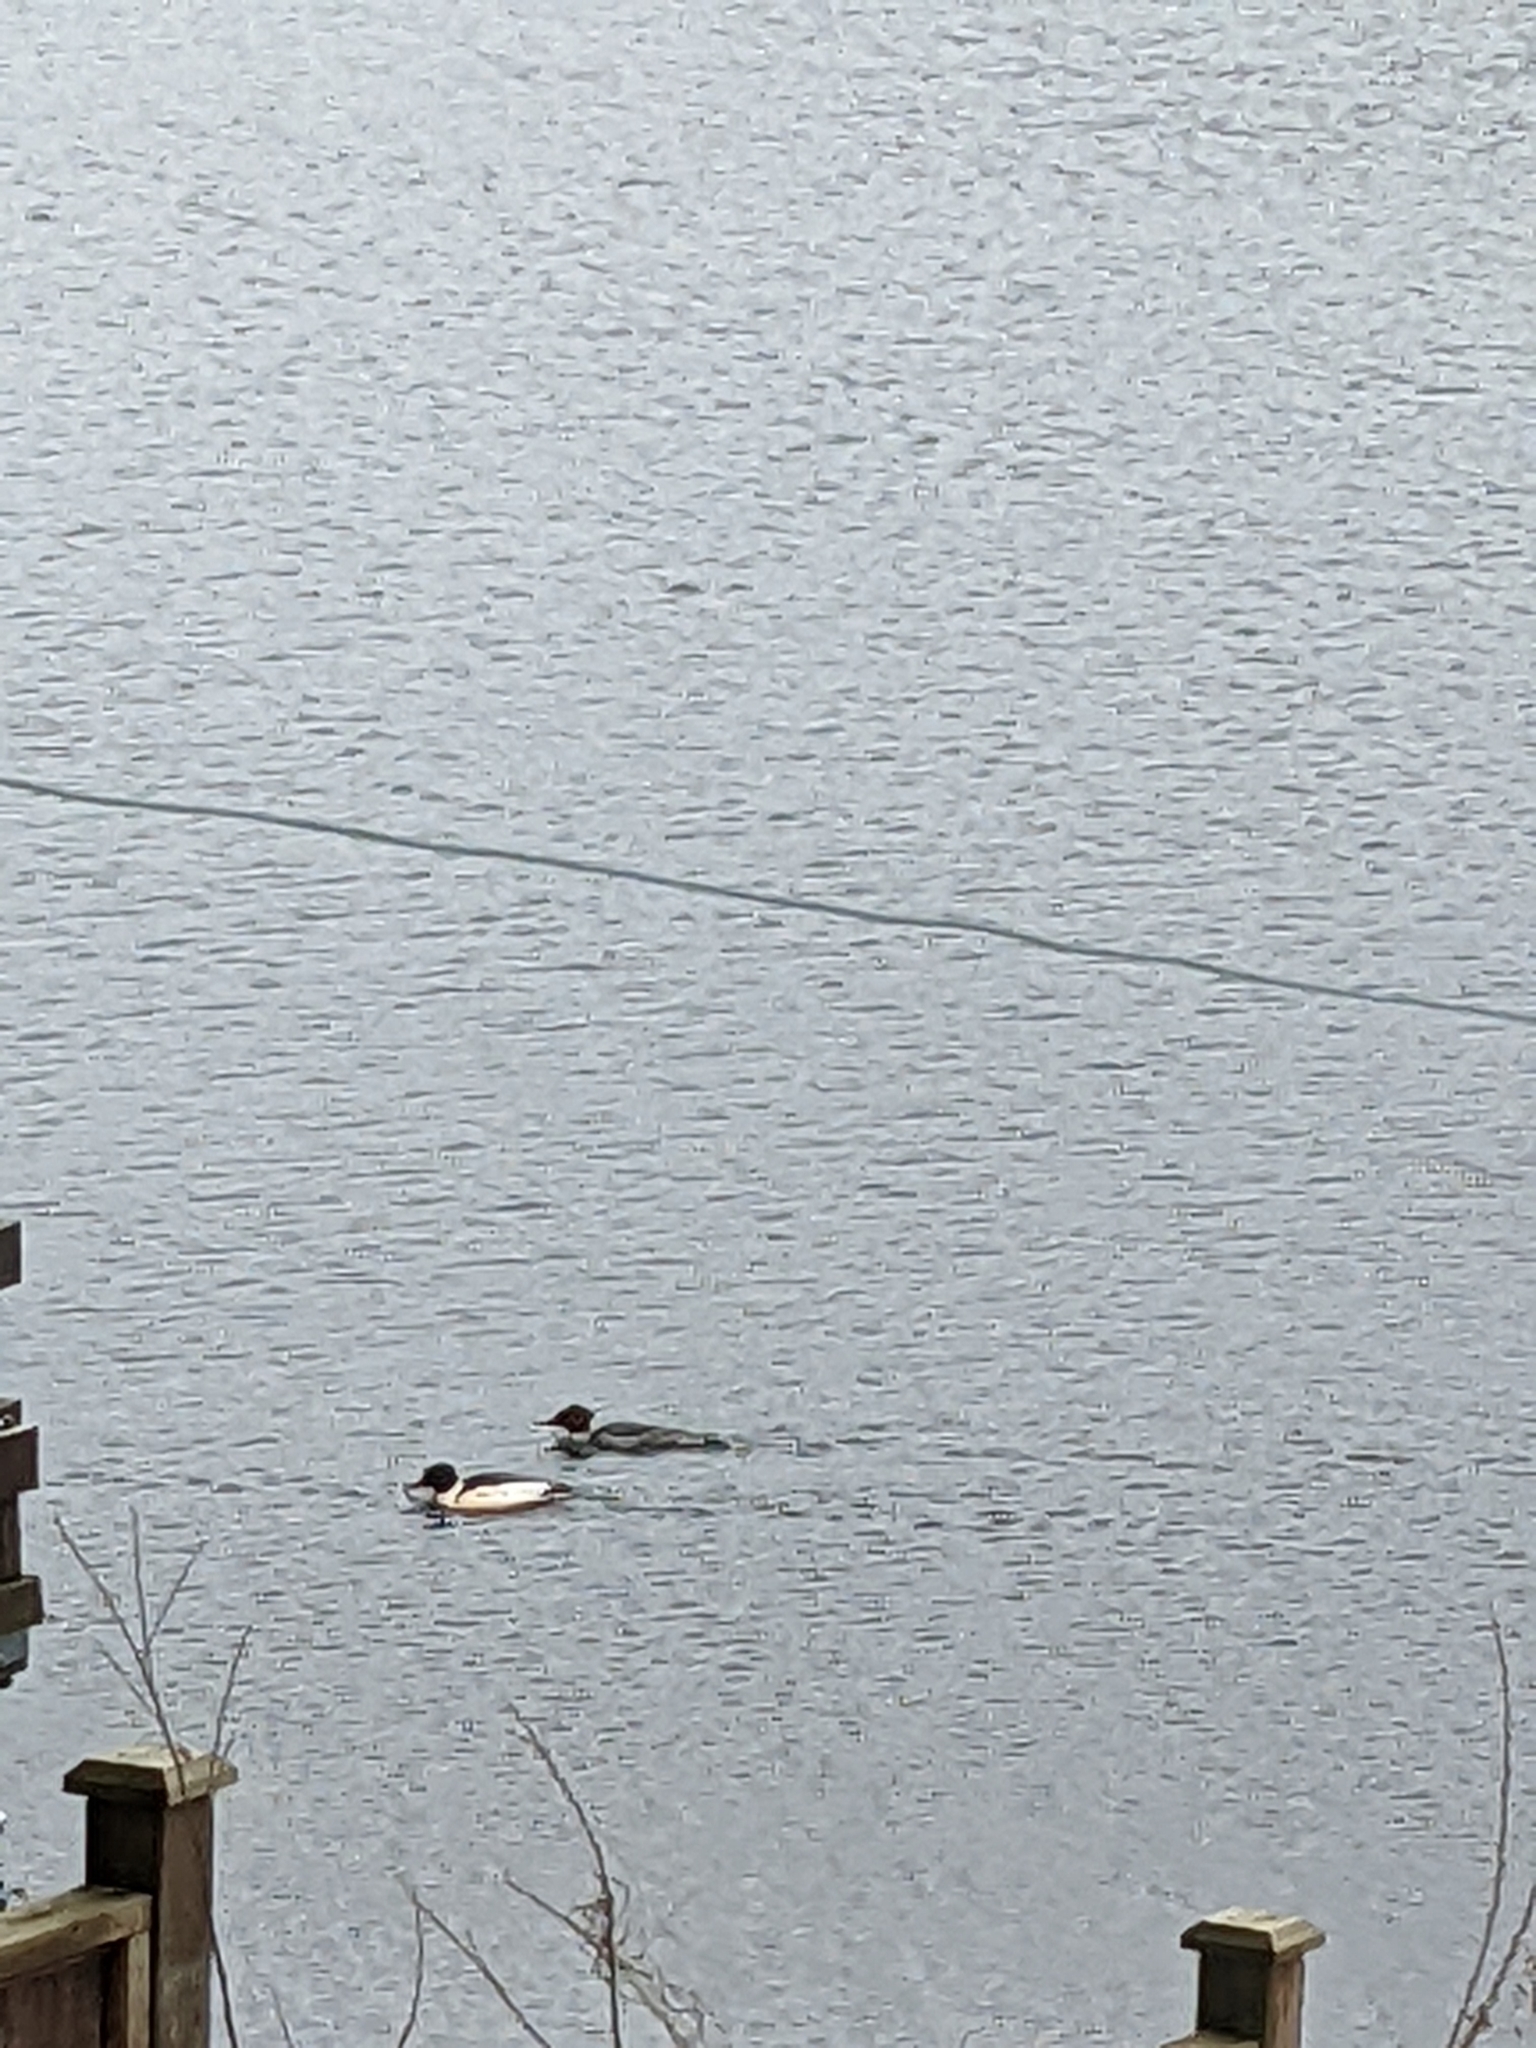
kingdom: Animalia
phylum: Chordata
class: Aves
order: Anseriformes
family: Anatidae
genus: Mergus
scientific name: Mergus merganser
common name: Common merganser
